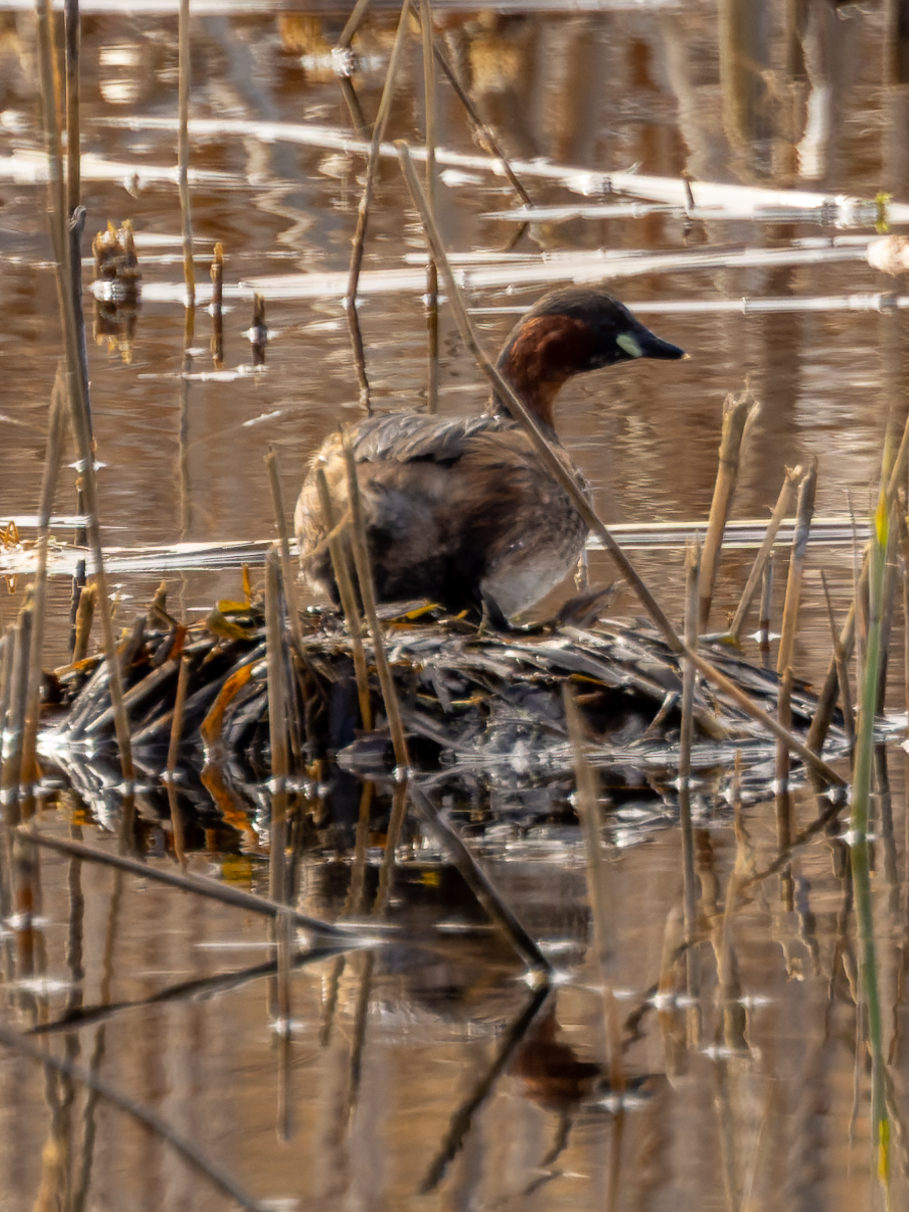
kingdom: Animalia
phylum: Chordata
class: Aves
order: Podicipediformes
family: Podicipedidae
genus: Tachybaptus
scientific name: Tachybaptus ruficollis
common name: Little grebe
